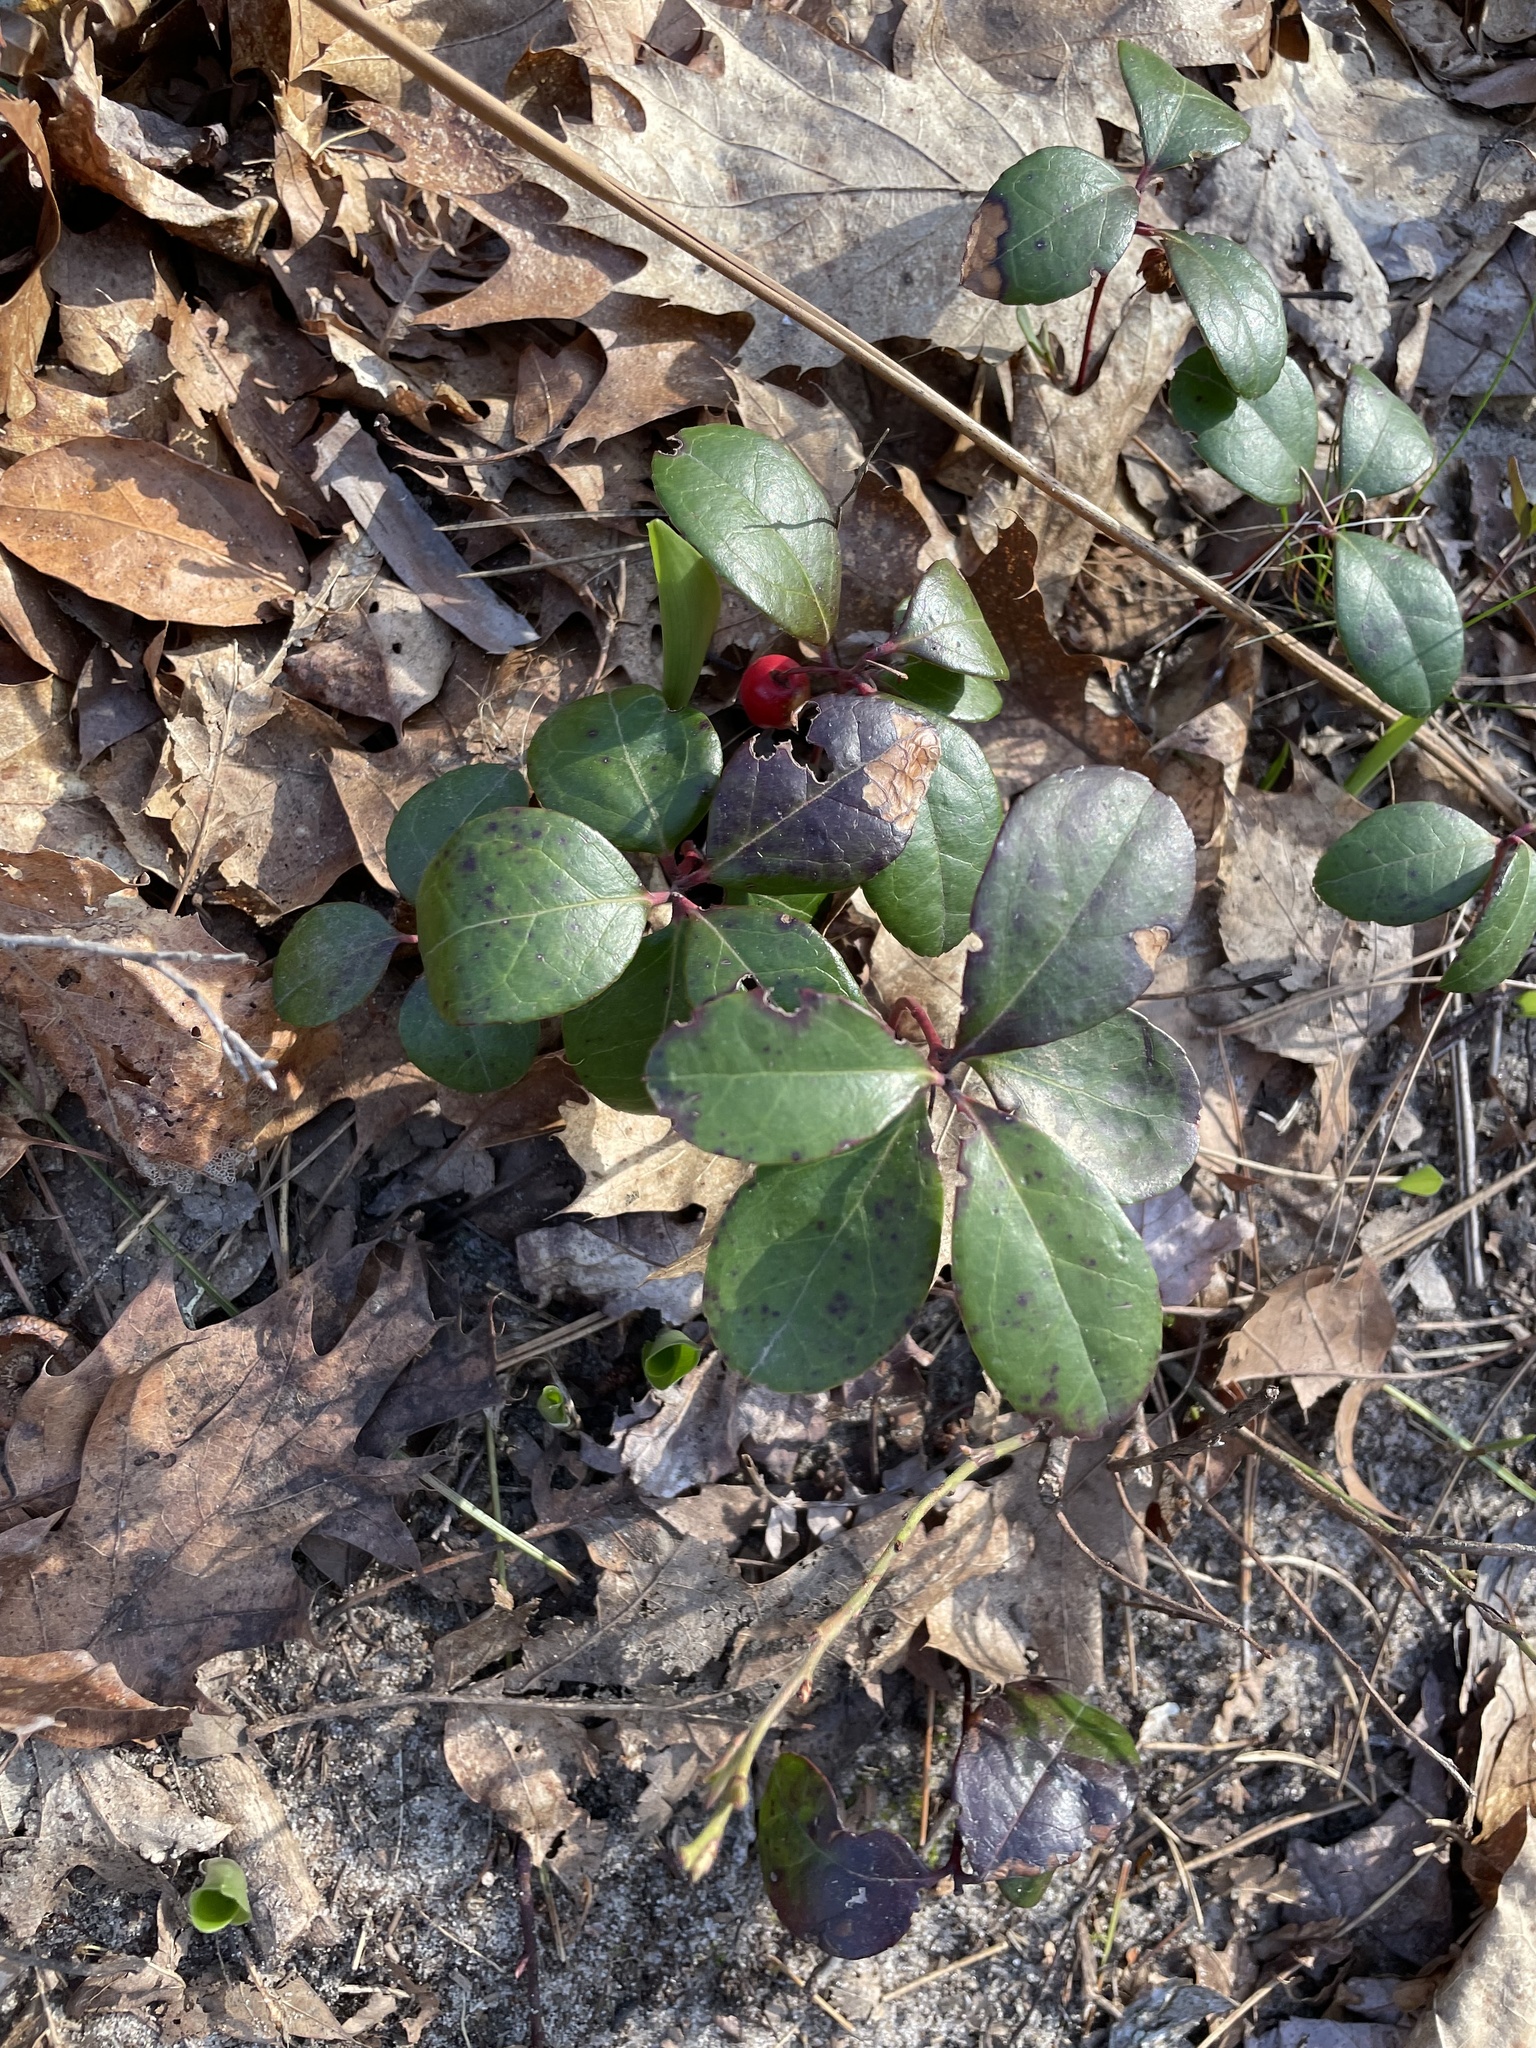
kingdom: Plantae
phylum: Tracheophyta
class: Magnoliopsida
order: Ericales
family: Ericaceae
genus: Gaultheria
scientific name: Gaultheria procumbens
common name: Checkerberry
